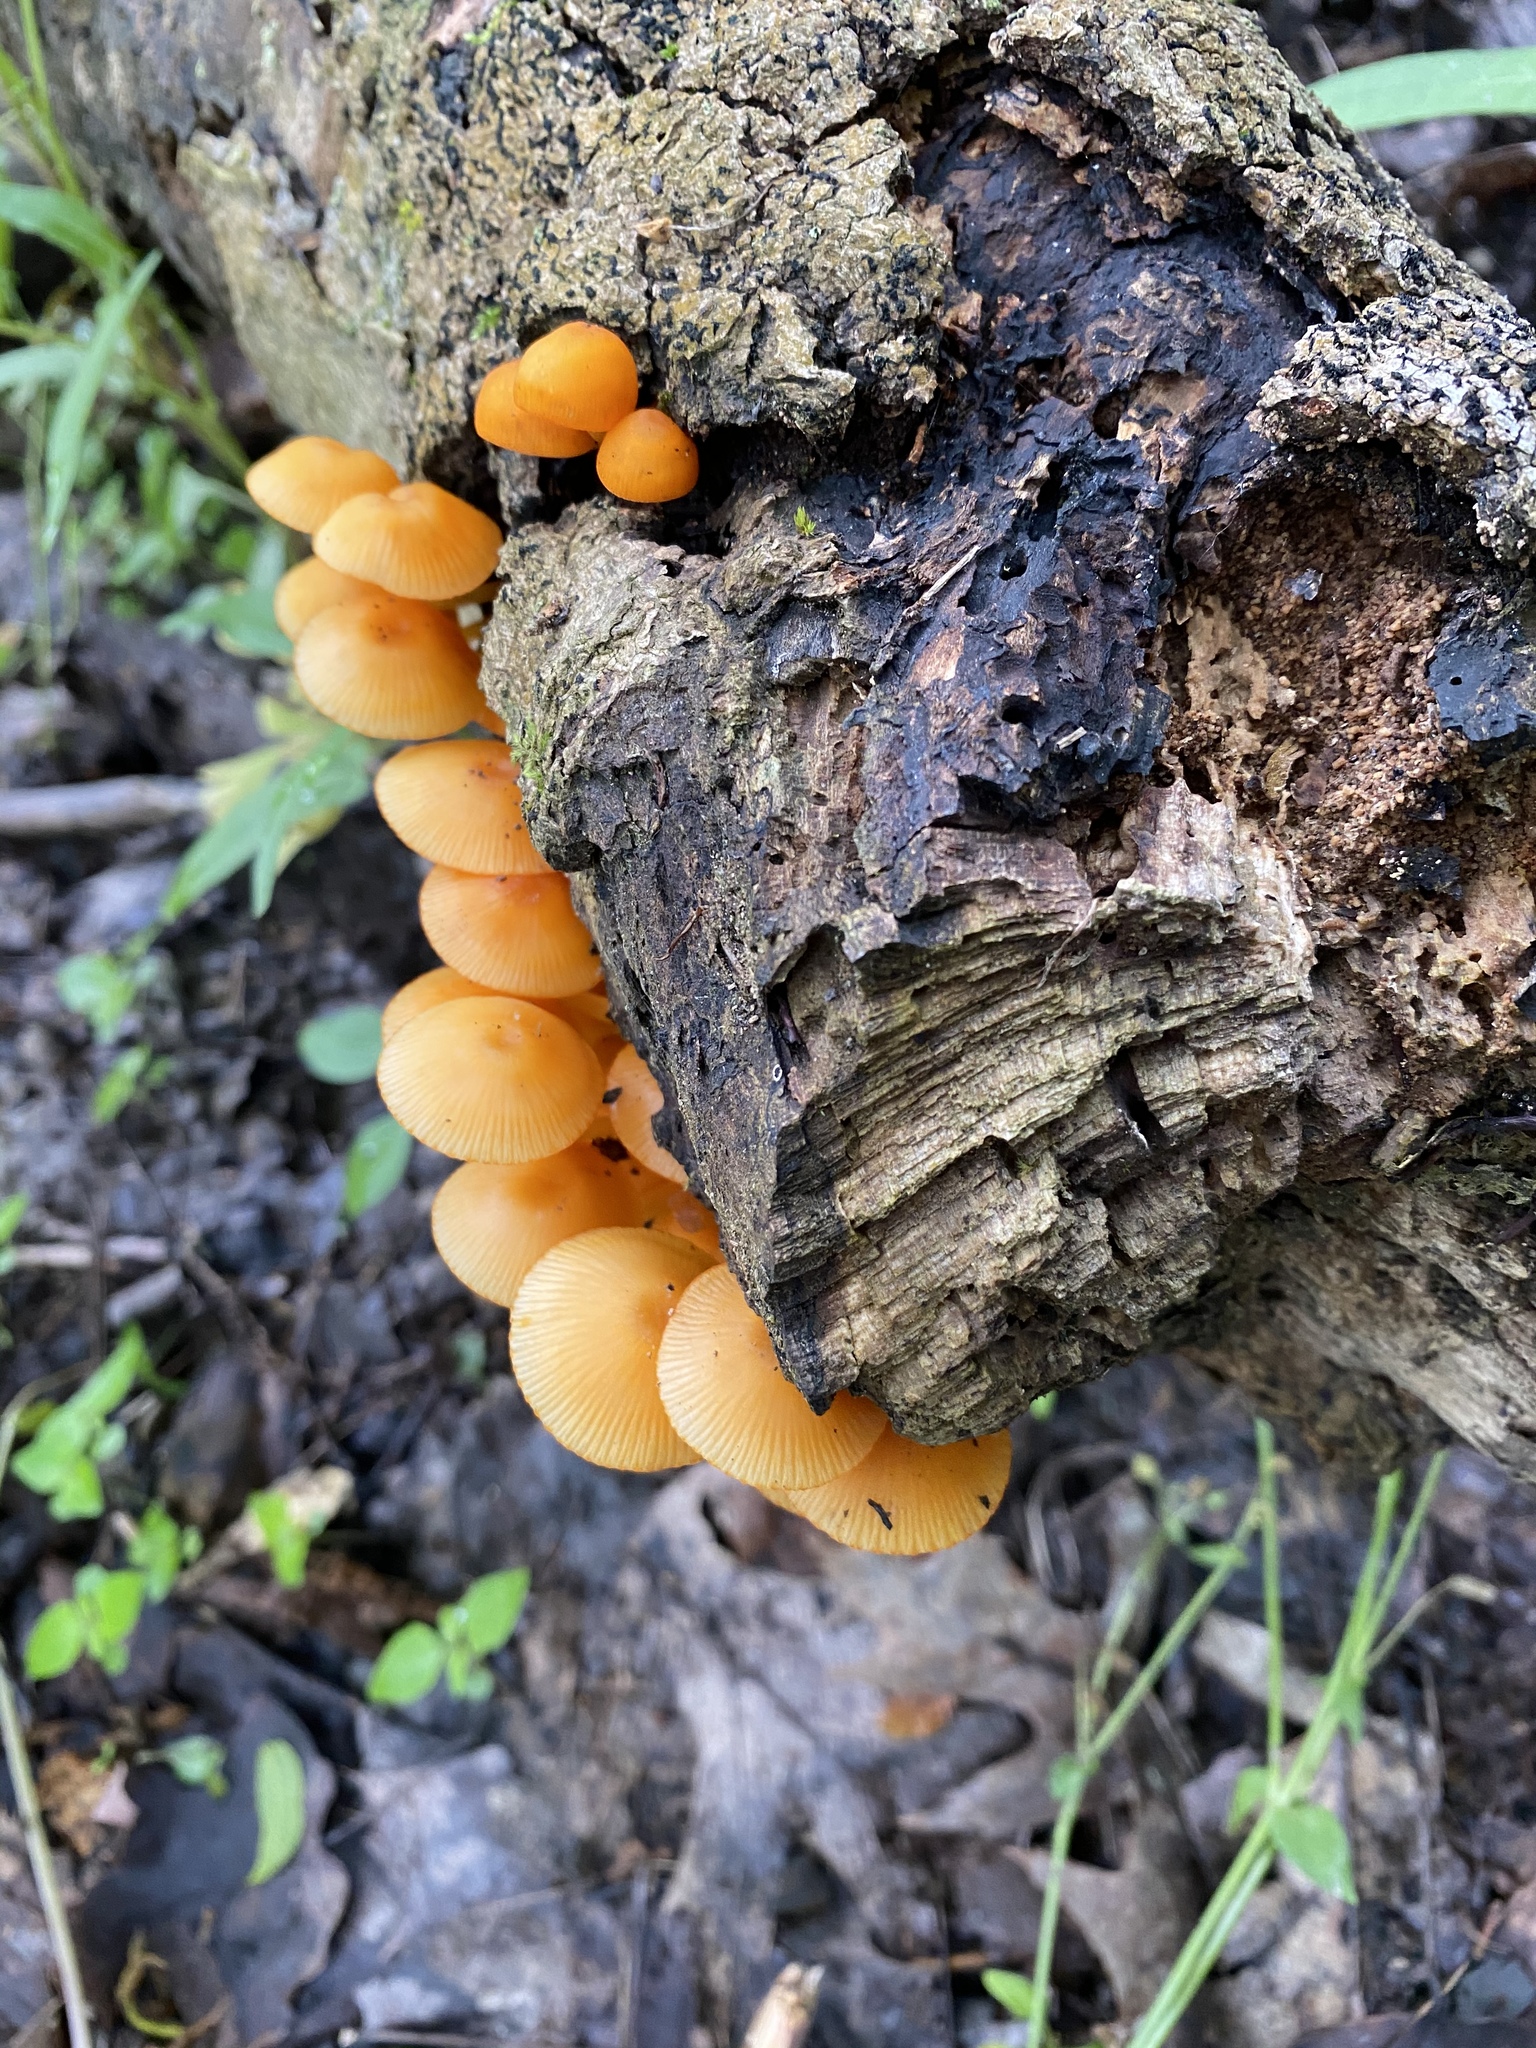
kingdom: Fungi
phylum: Basidiomycota
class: Agaricomycetes
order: Agaricales
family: Mycenaceae
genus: Mycena
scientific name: Mycena leaiana
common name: Orange mycena
